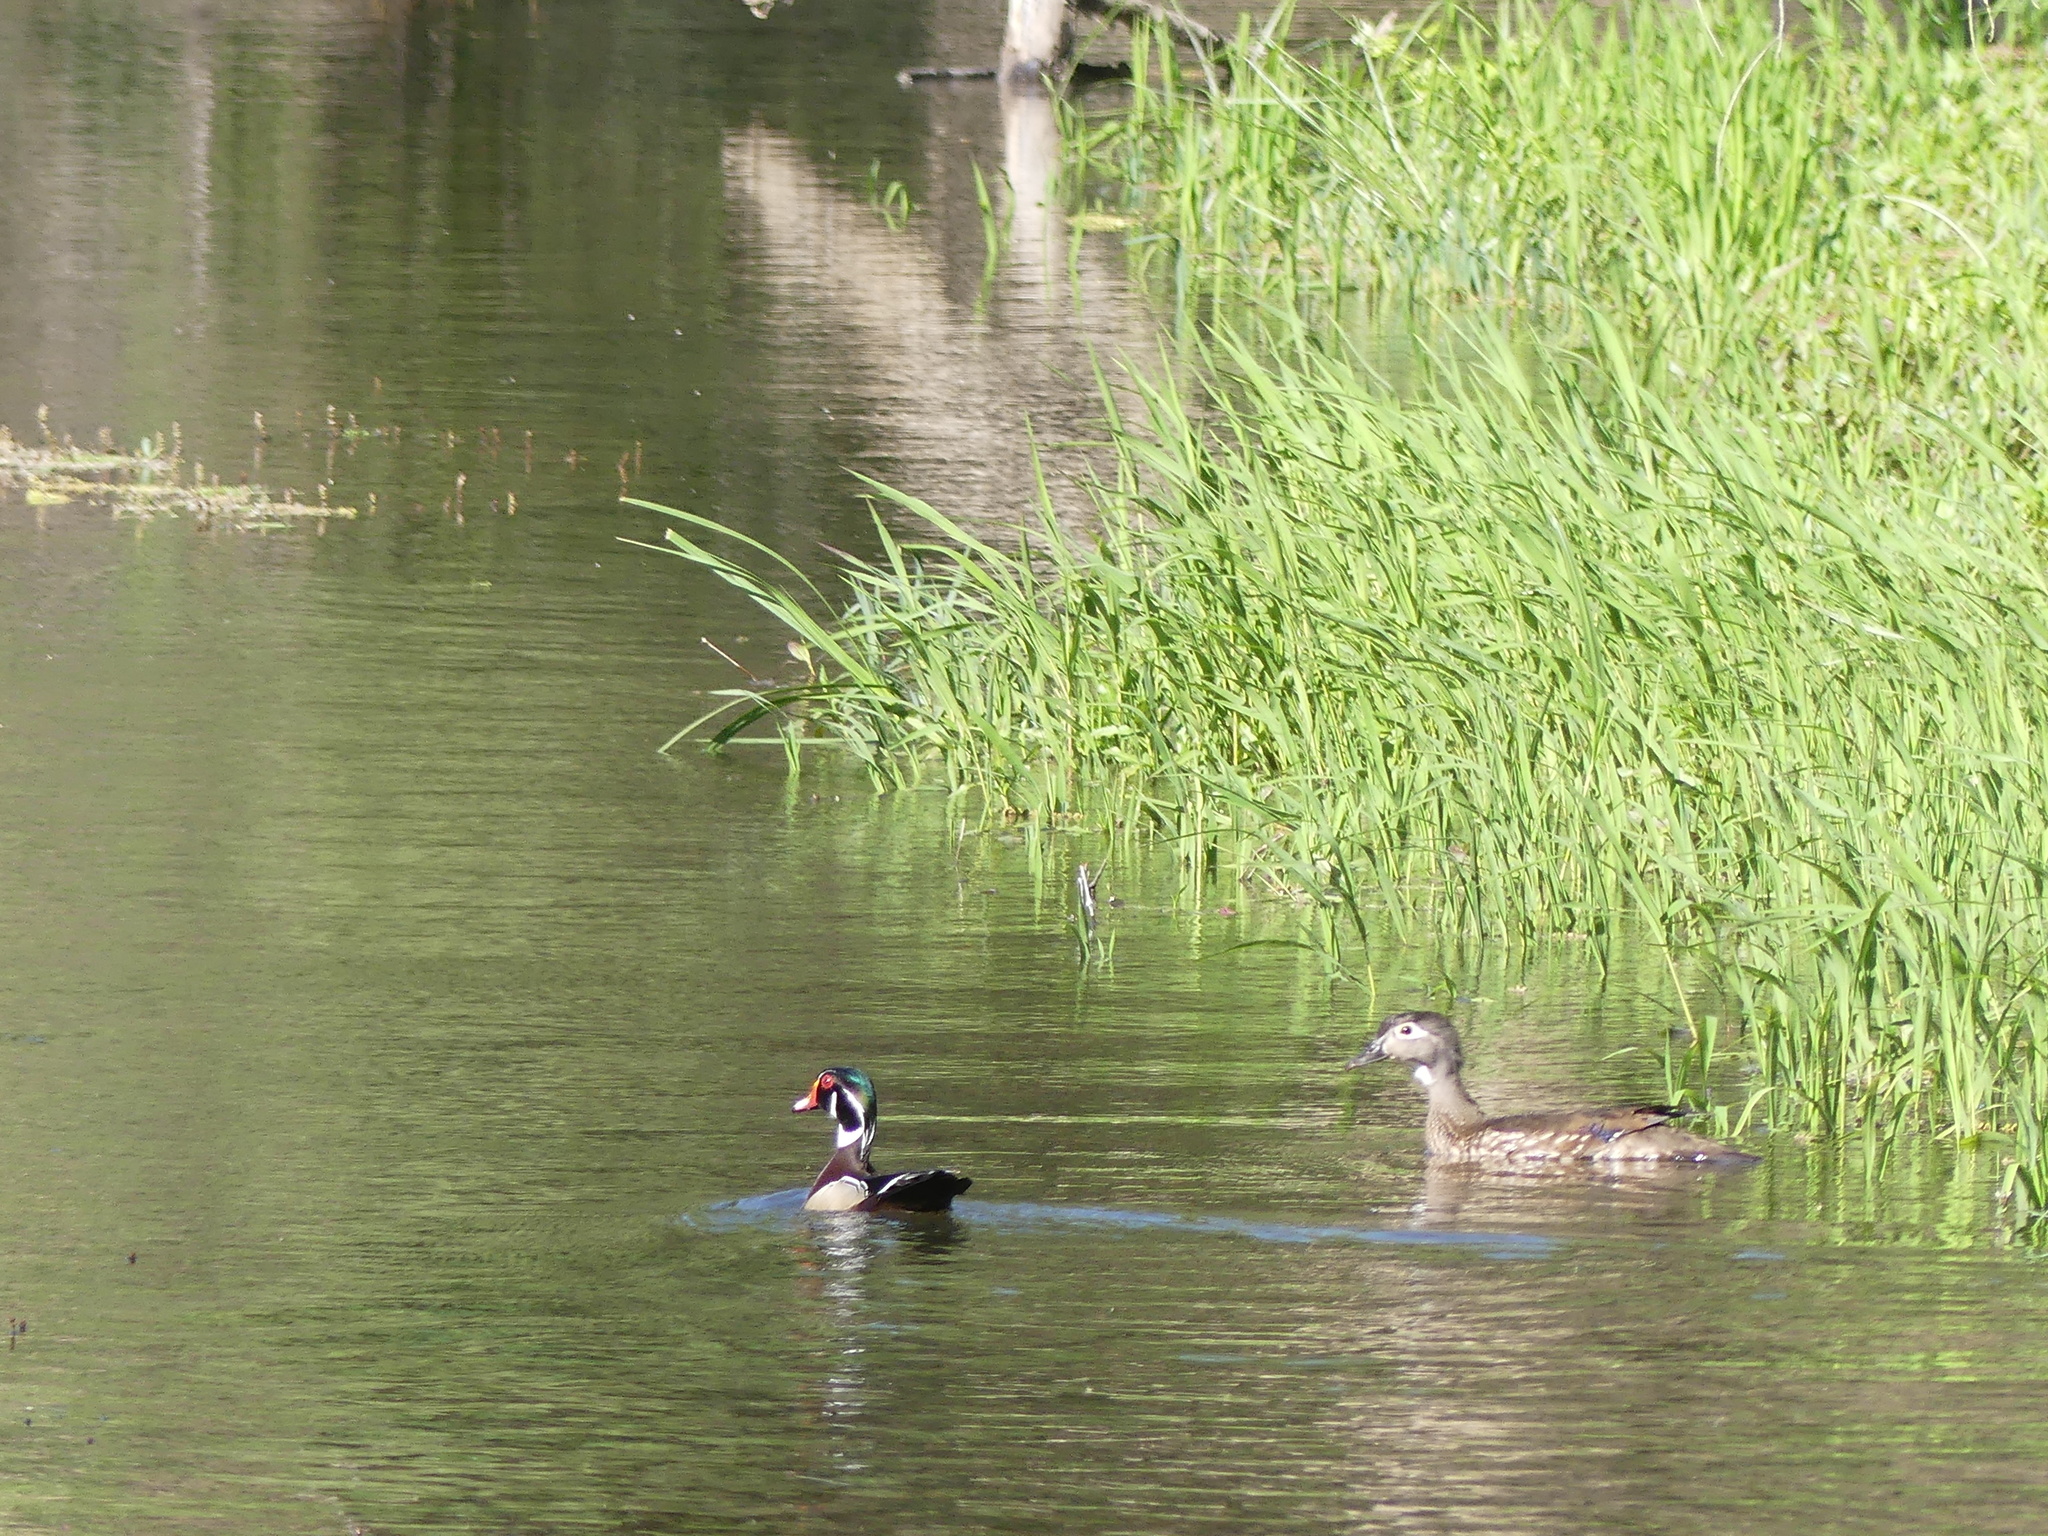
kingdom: Animalia
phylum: Chordata
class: Aves
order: Anseriformes
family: Anatidae
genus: Aix
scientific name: Aix sponsa
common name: Wood duck
